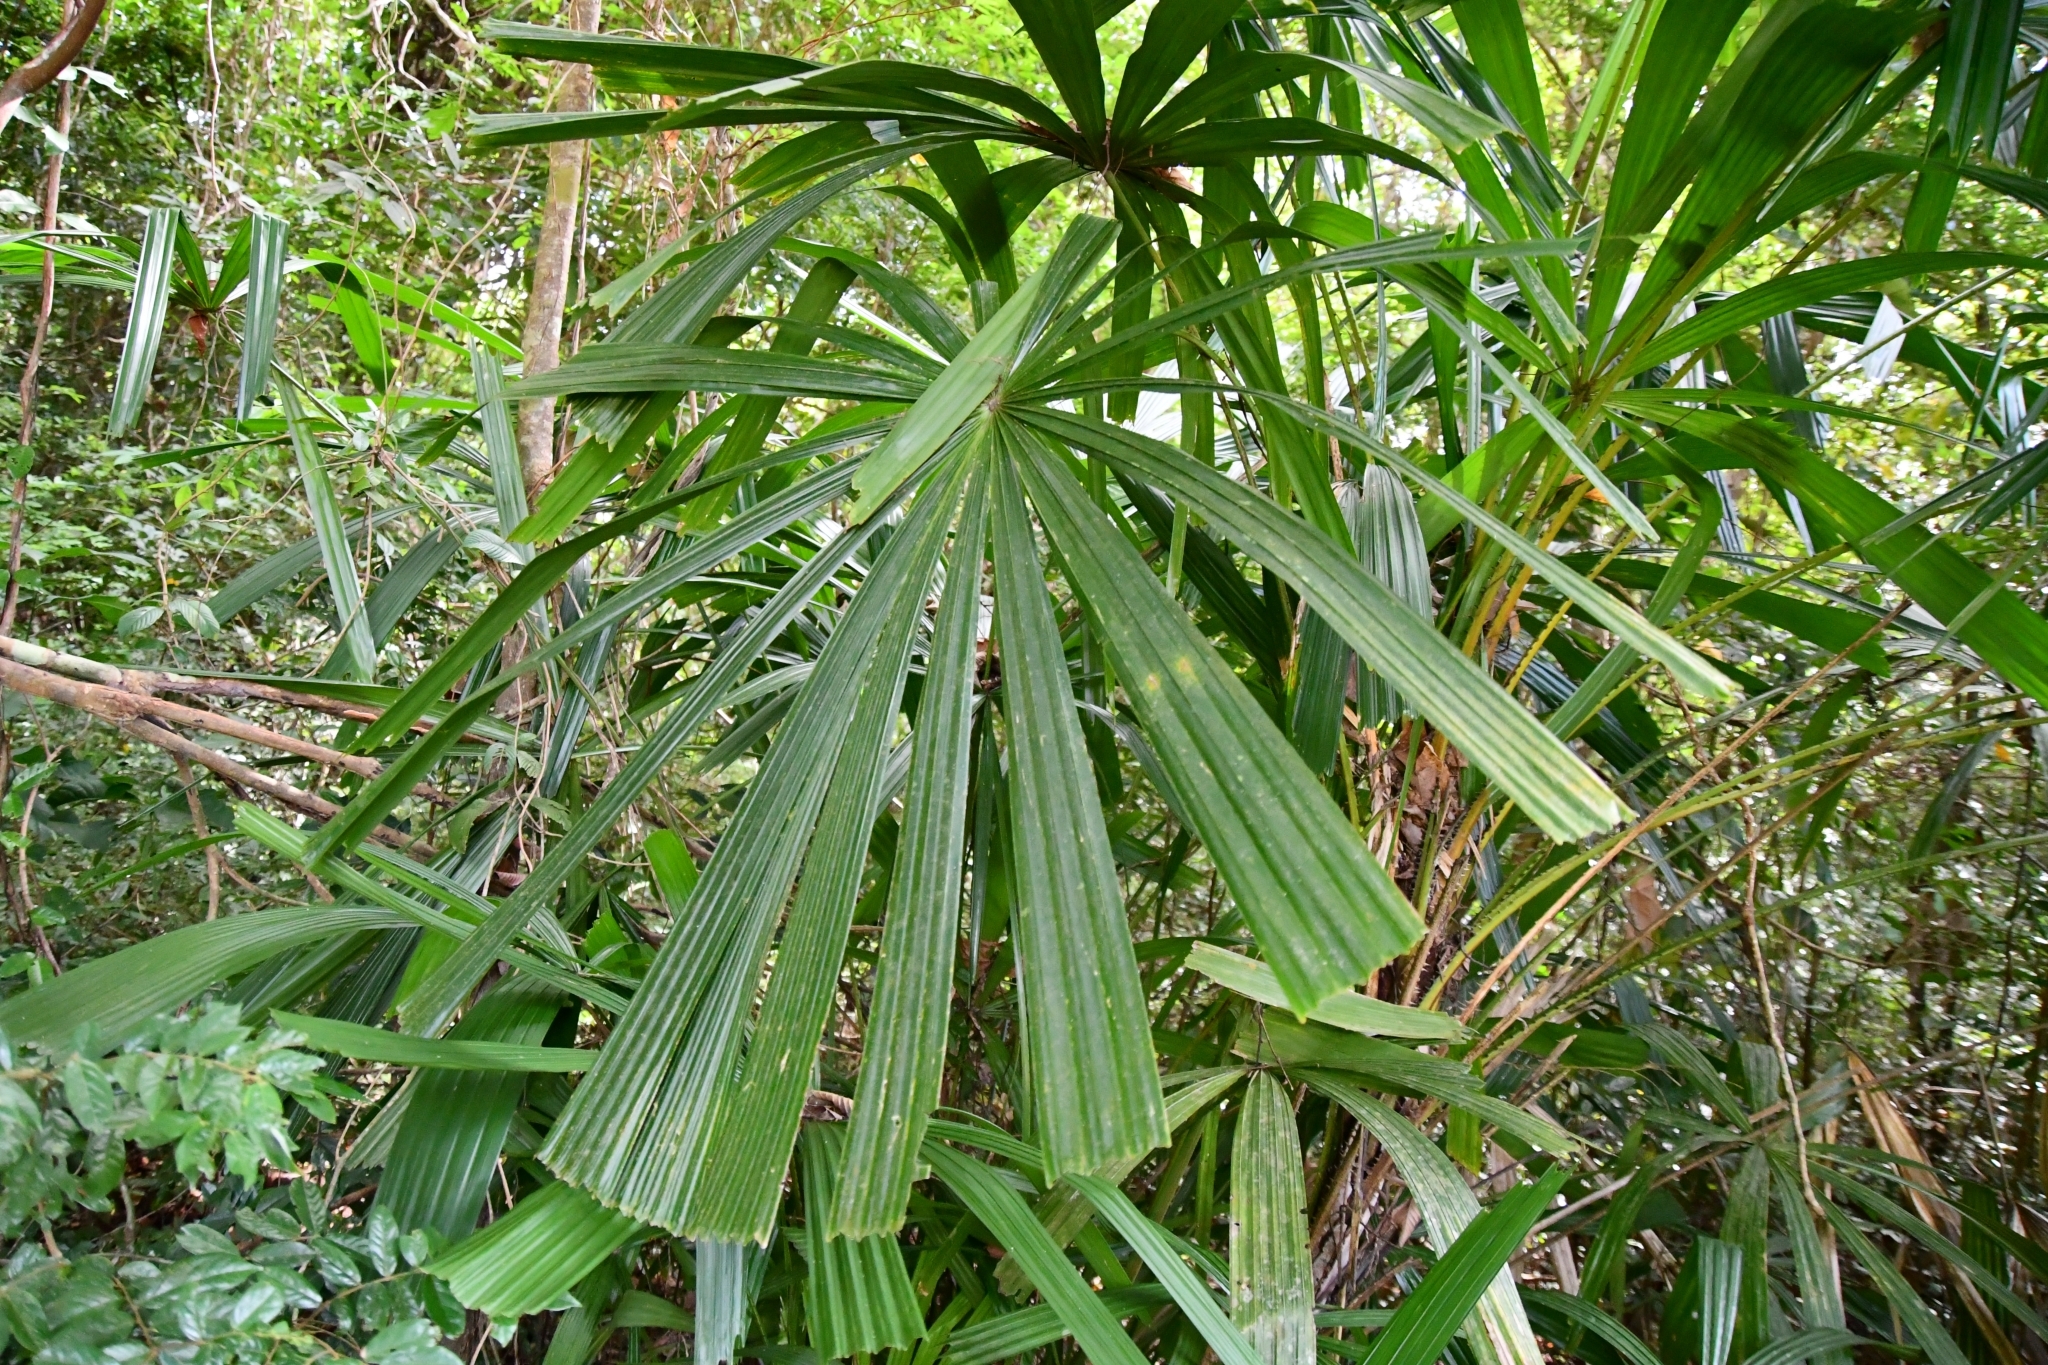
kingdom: Plantae
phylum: Tracheophyta
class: Liliopsida
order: Arecales
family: Arecaceae
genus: Licuala
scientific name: Licuala spinosa
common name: Mangrove fan palm
